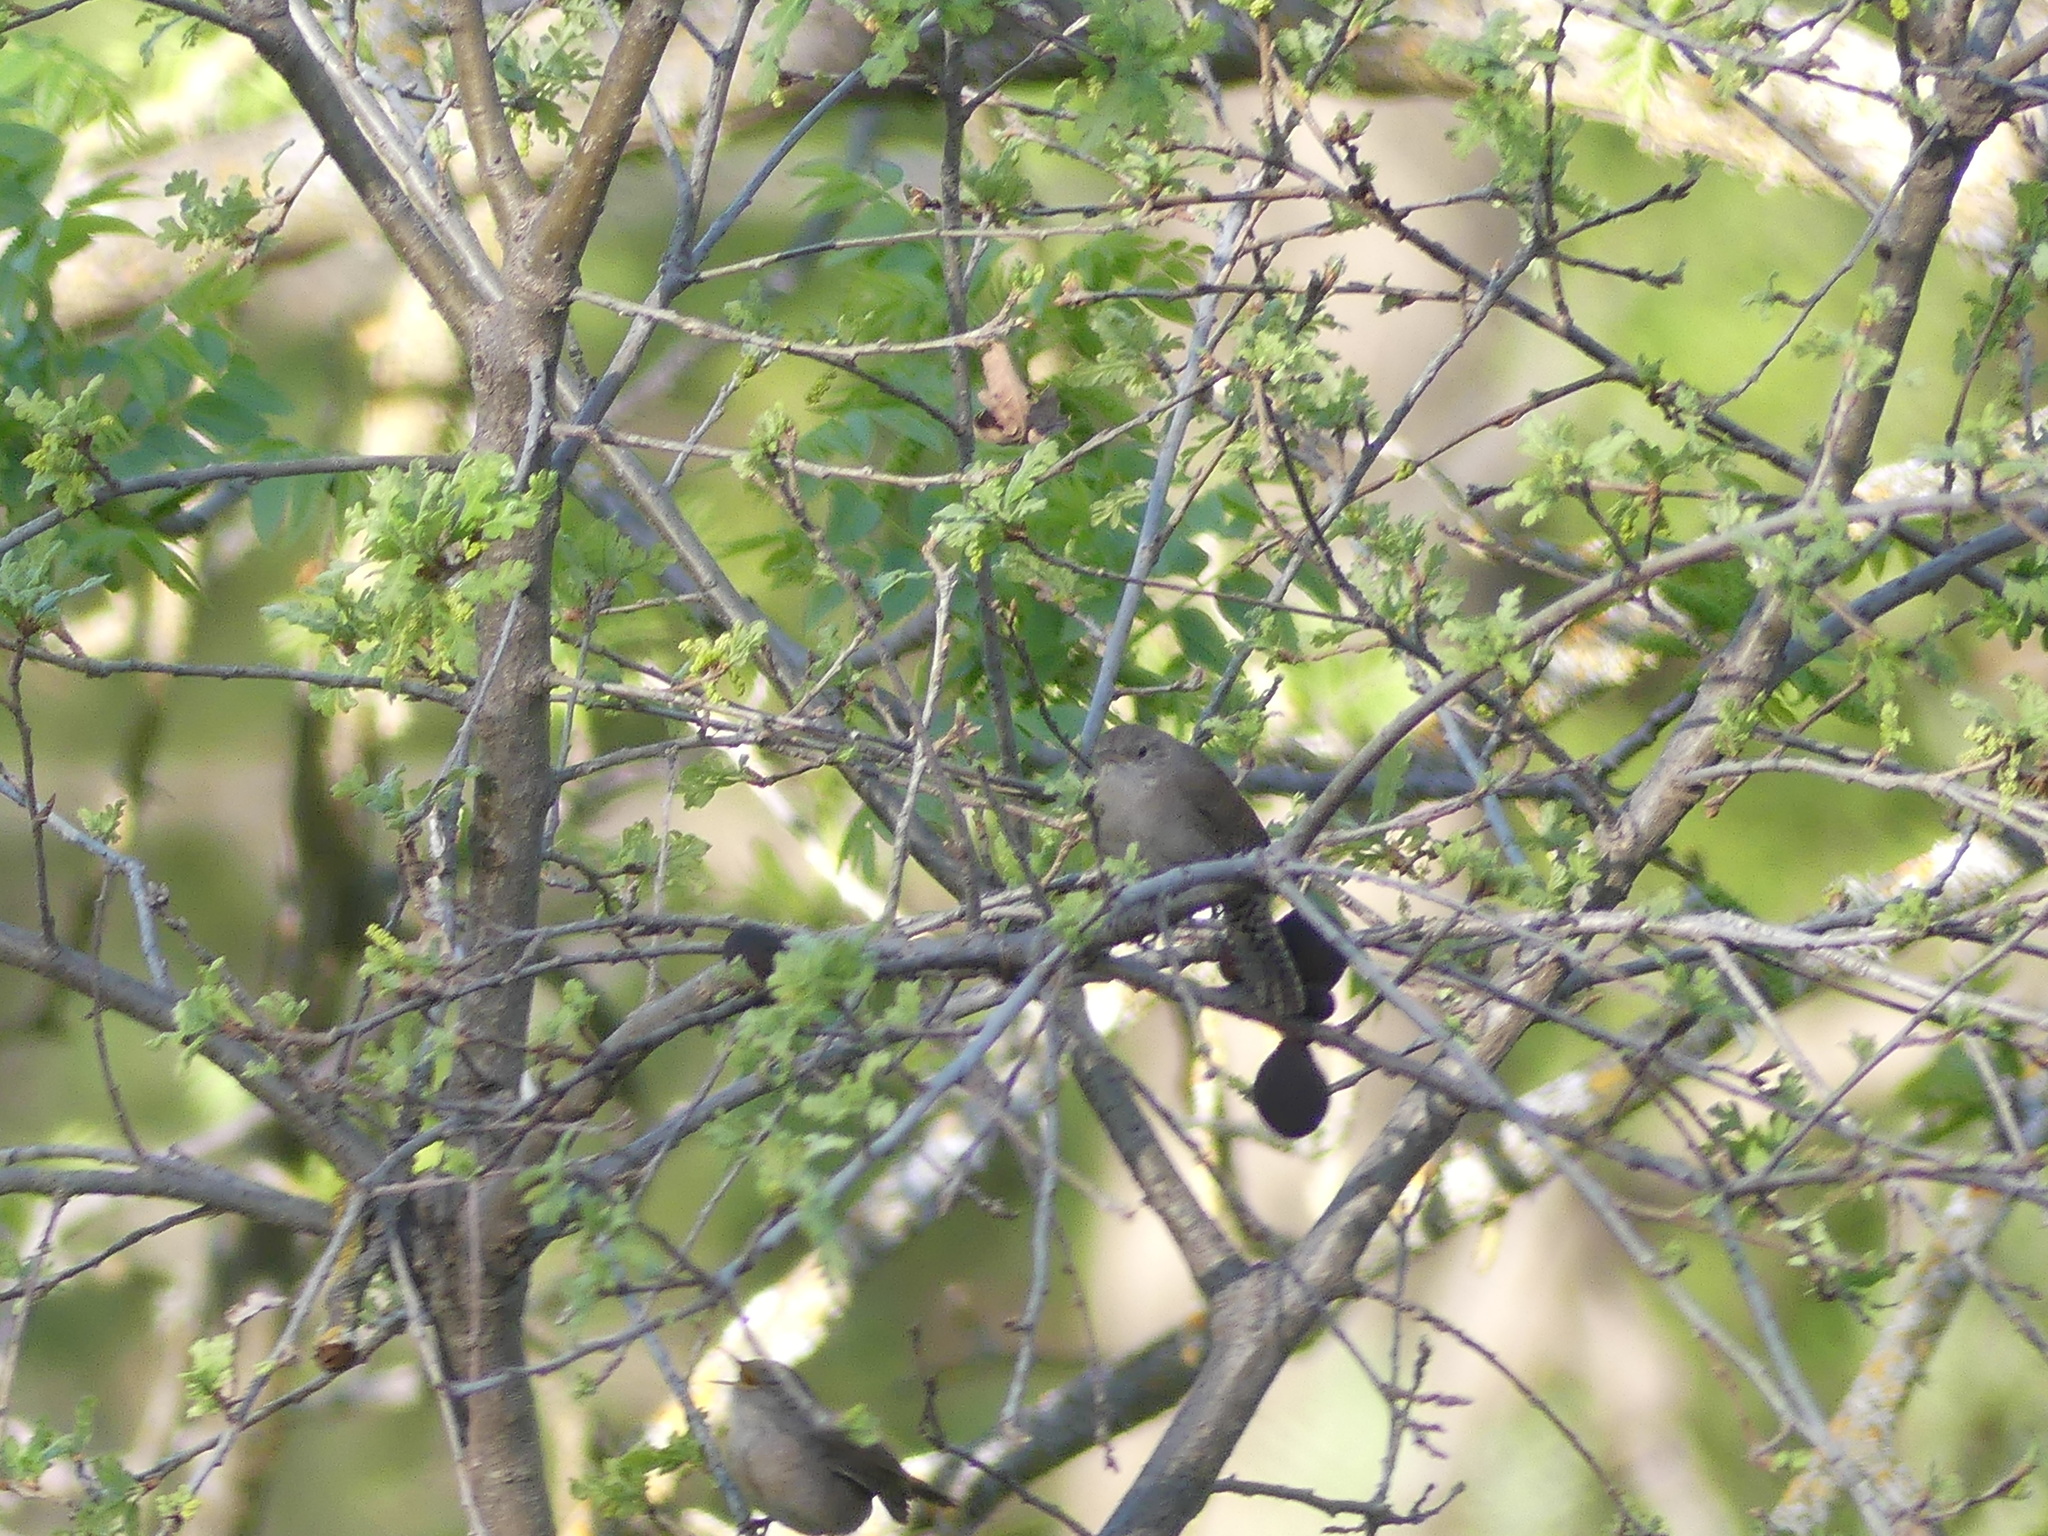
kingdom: Animalia
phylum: Chordata
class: Aves
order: Passeriformes
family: Troglodytidae
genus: Troglodytes
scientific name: Troglodytes aedon
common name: House wren
